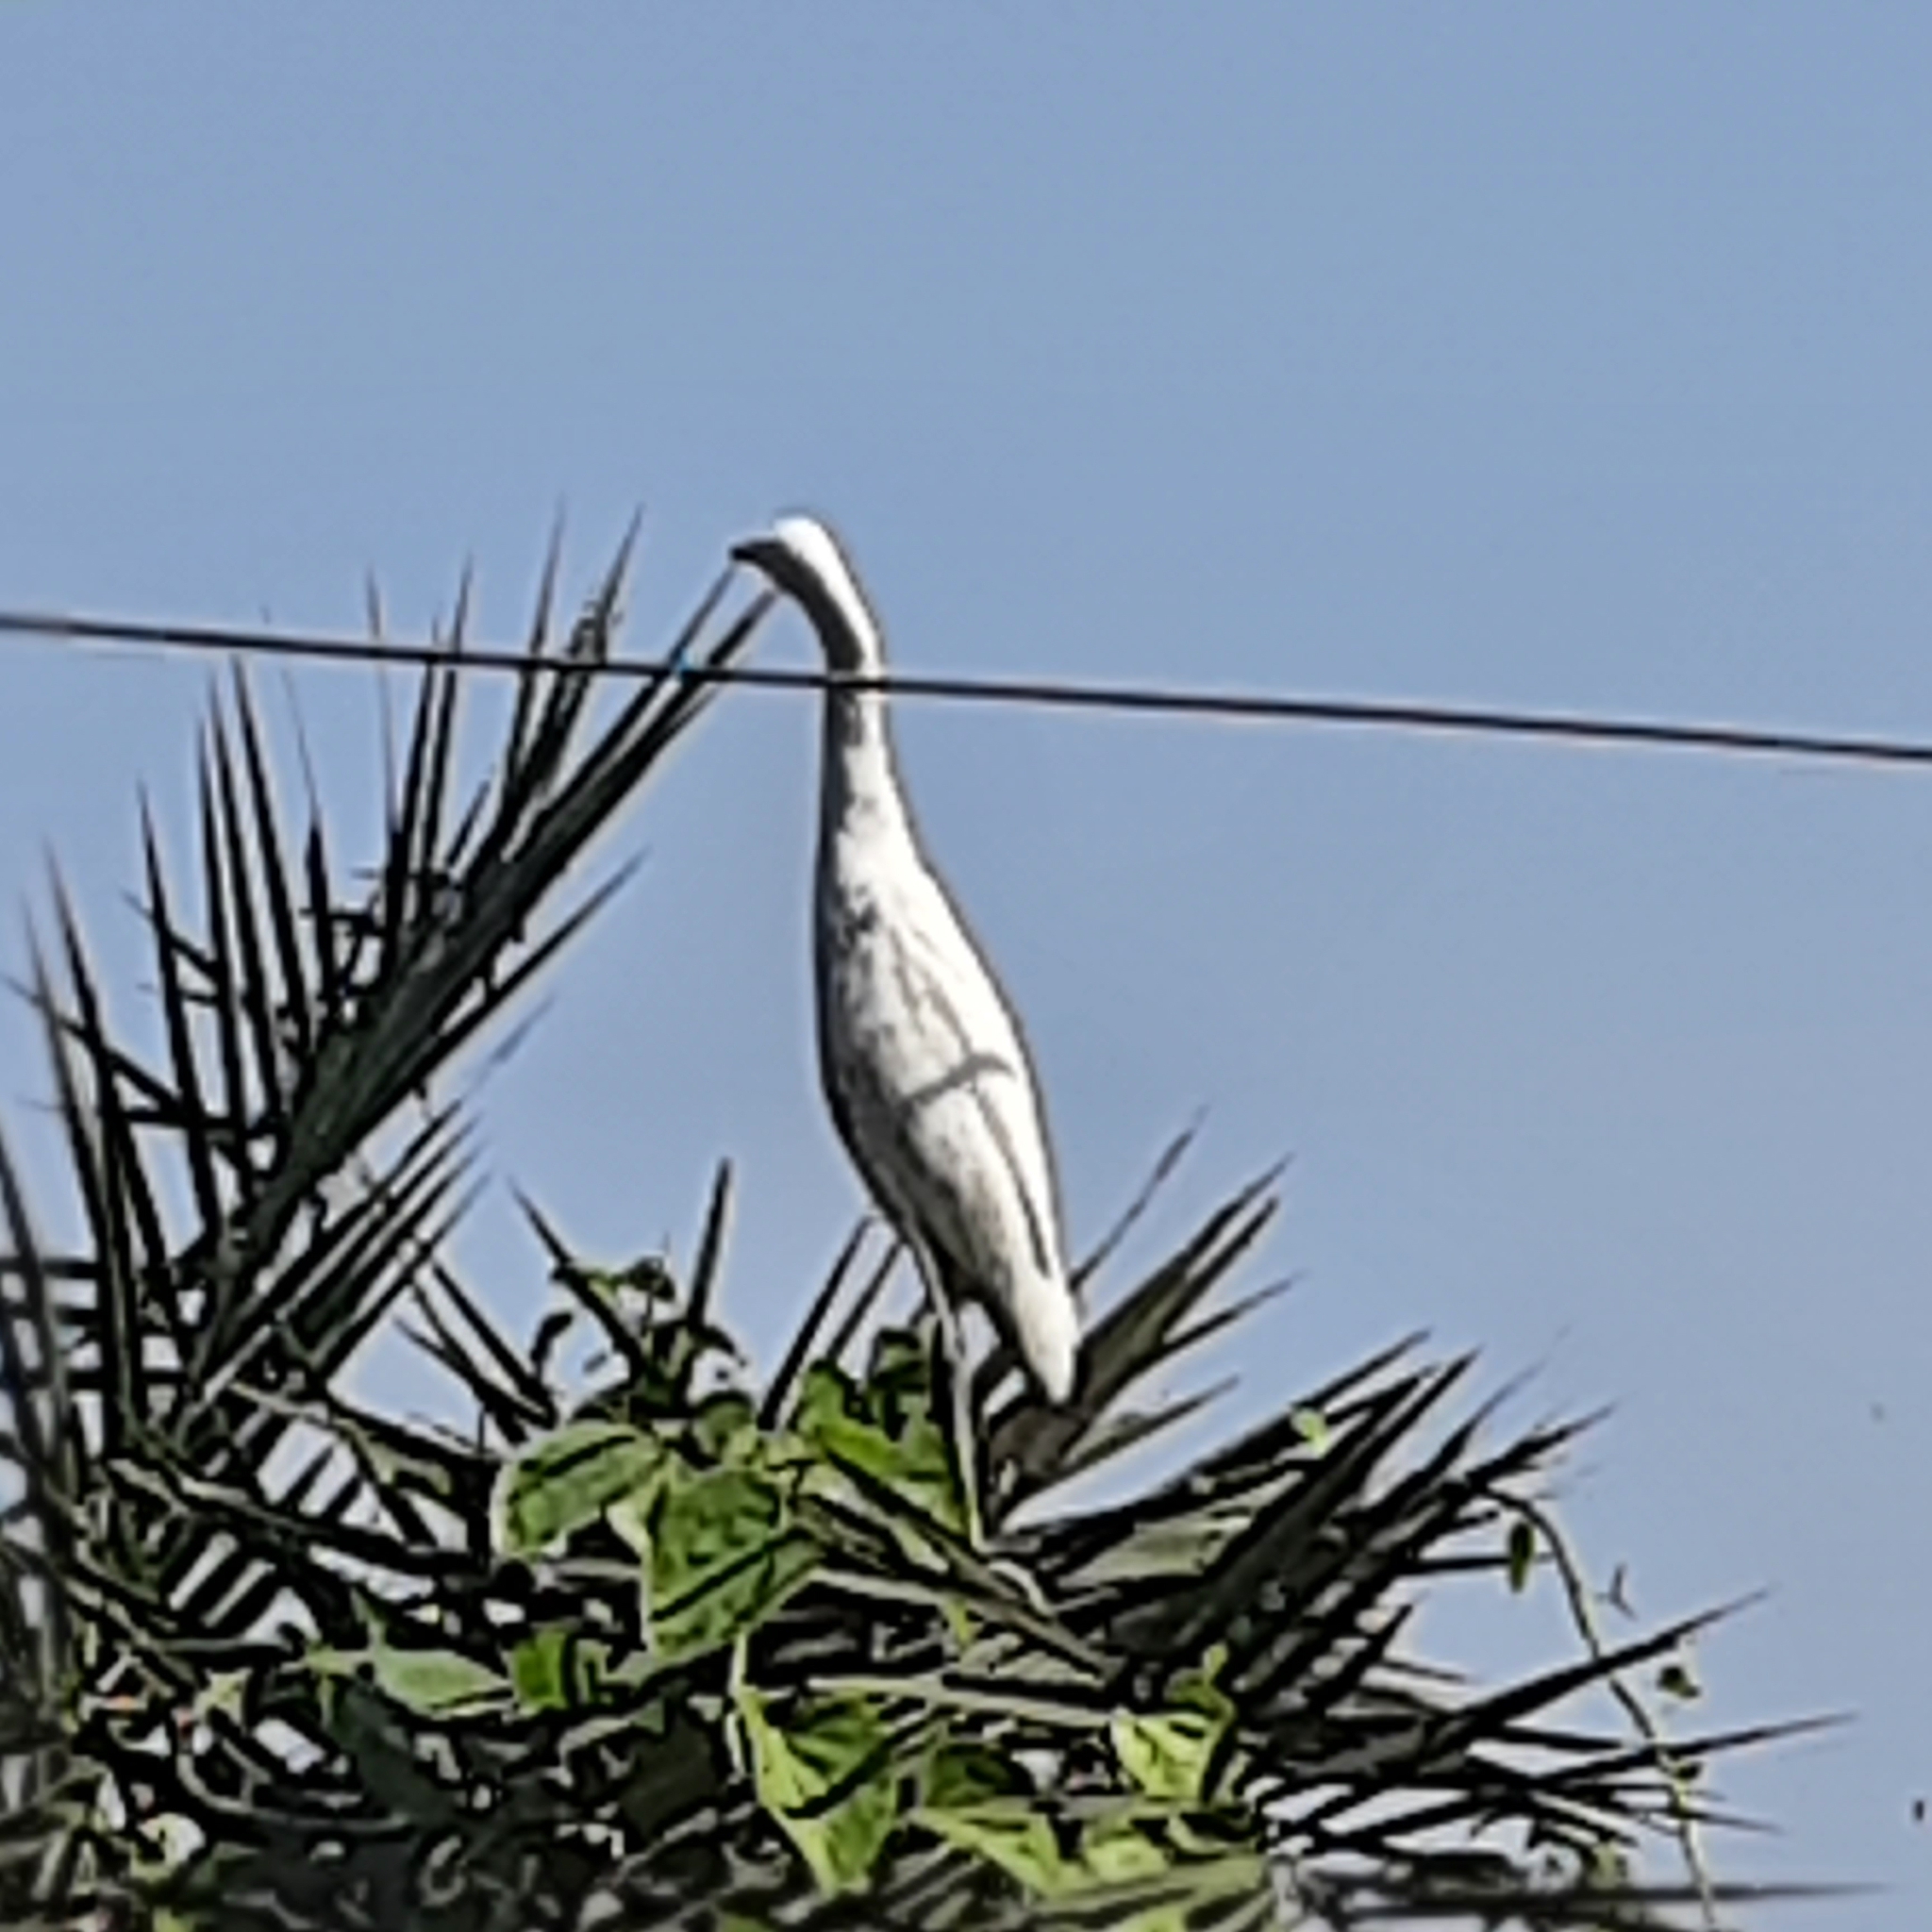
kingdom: Animalia
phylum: Chordata
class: Aves
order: Pelecaniformes
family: Ardeidae
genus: Bubulcus
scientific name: Bubulcus coromandus
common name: Eastern cattle egret
